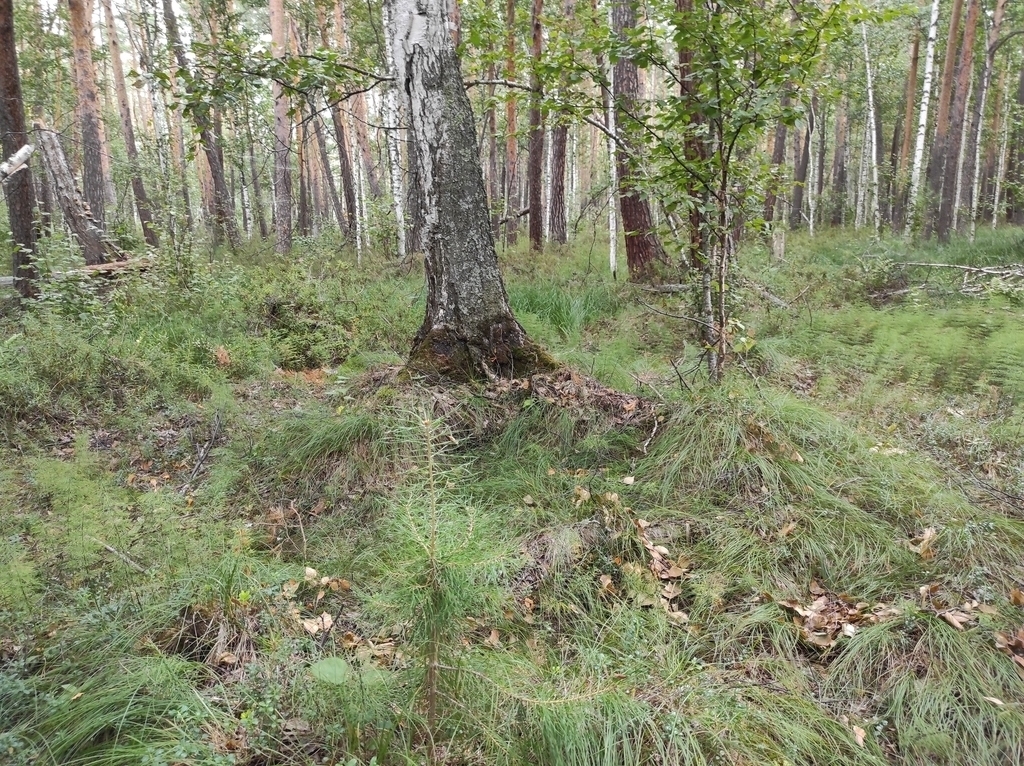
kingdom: Plantae
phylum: Tracheophyta
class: Pinopsida
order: Pinales
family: Pinaceae
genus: Pinus
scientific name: Pinus sylvestris
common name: Scots pine
